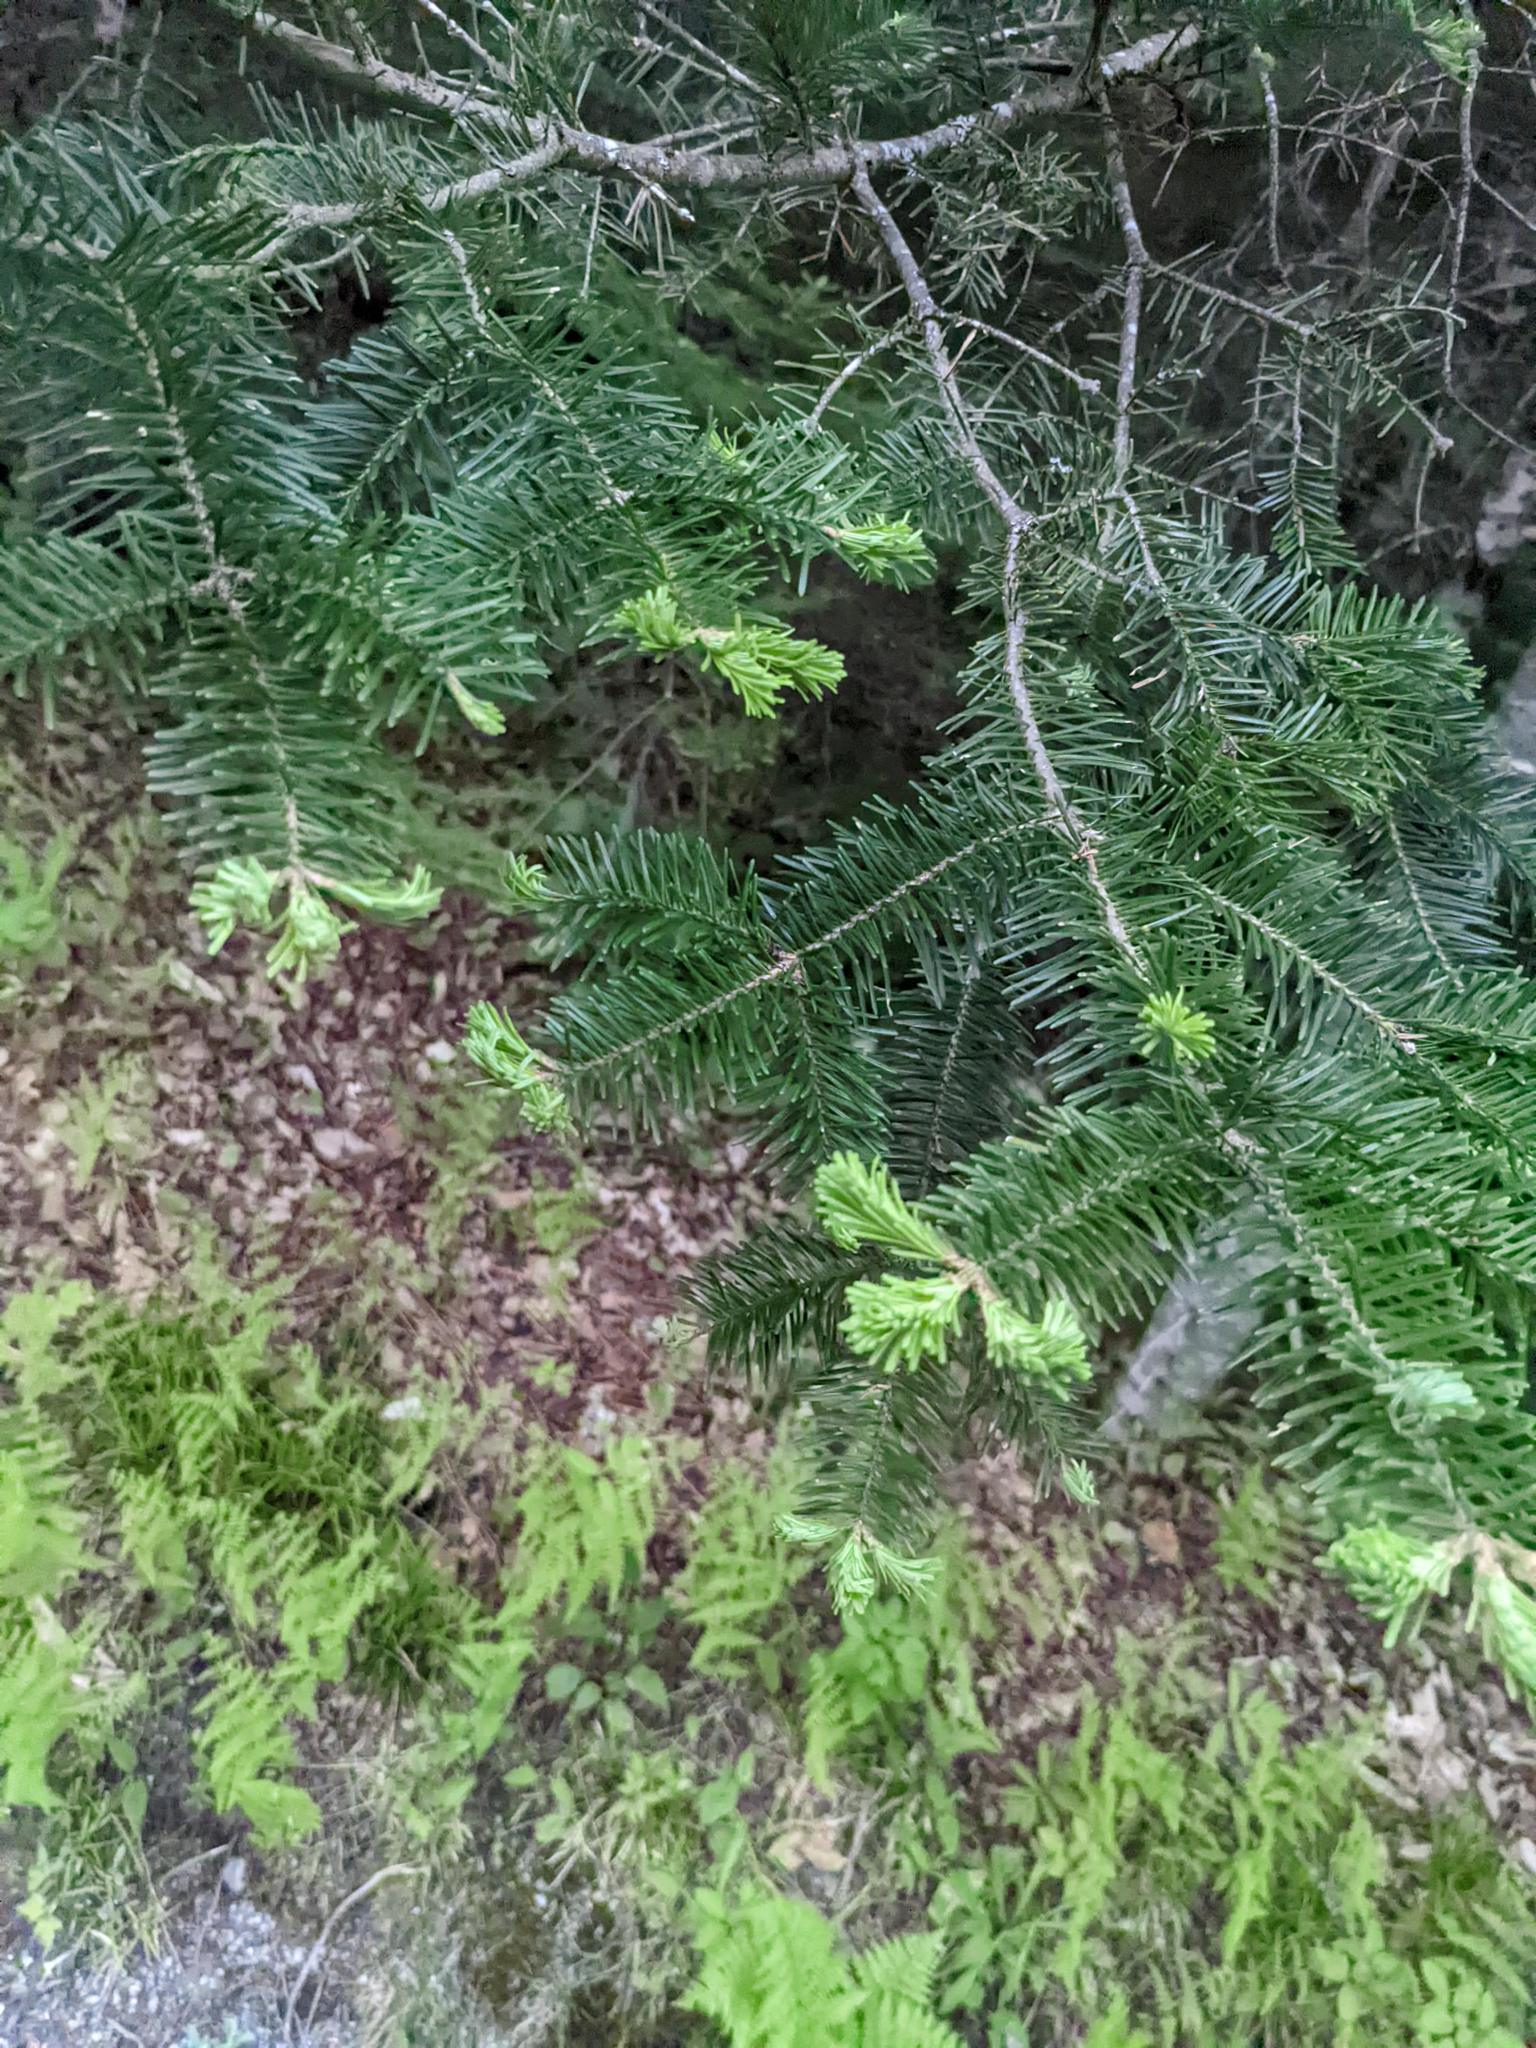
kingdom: Plantae
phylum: Tracheophyta
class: Pinopsida
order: Pinales
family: Pinaceae
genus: Abies
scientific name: Abies balsamea
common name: Balsam fir
